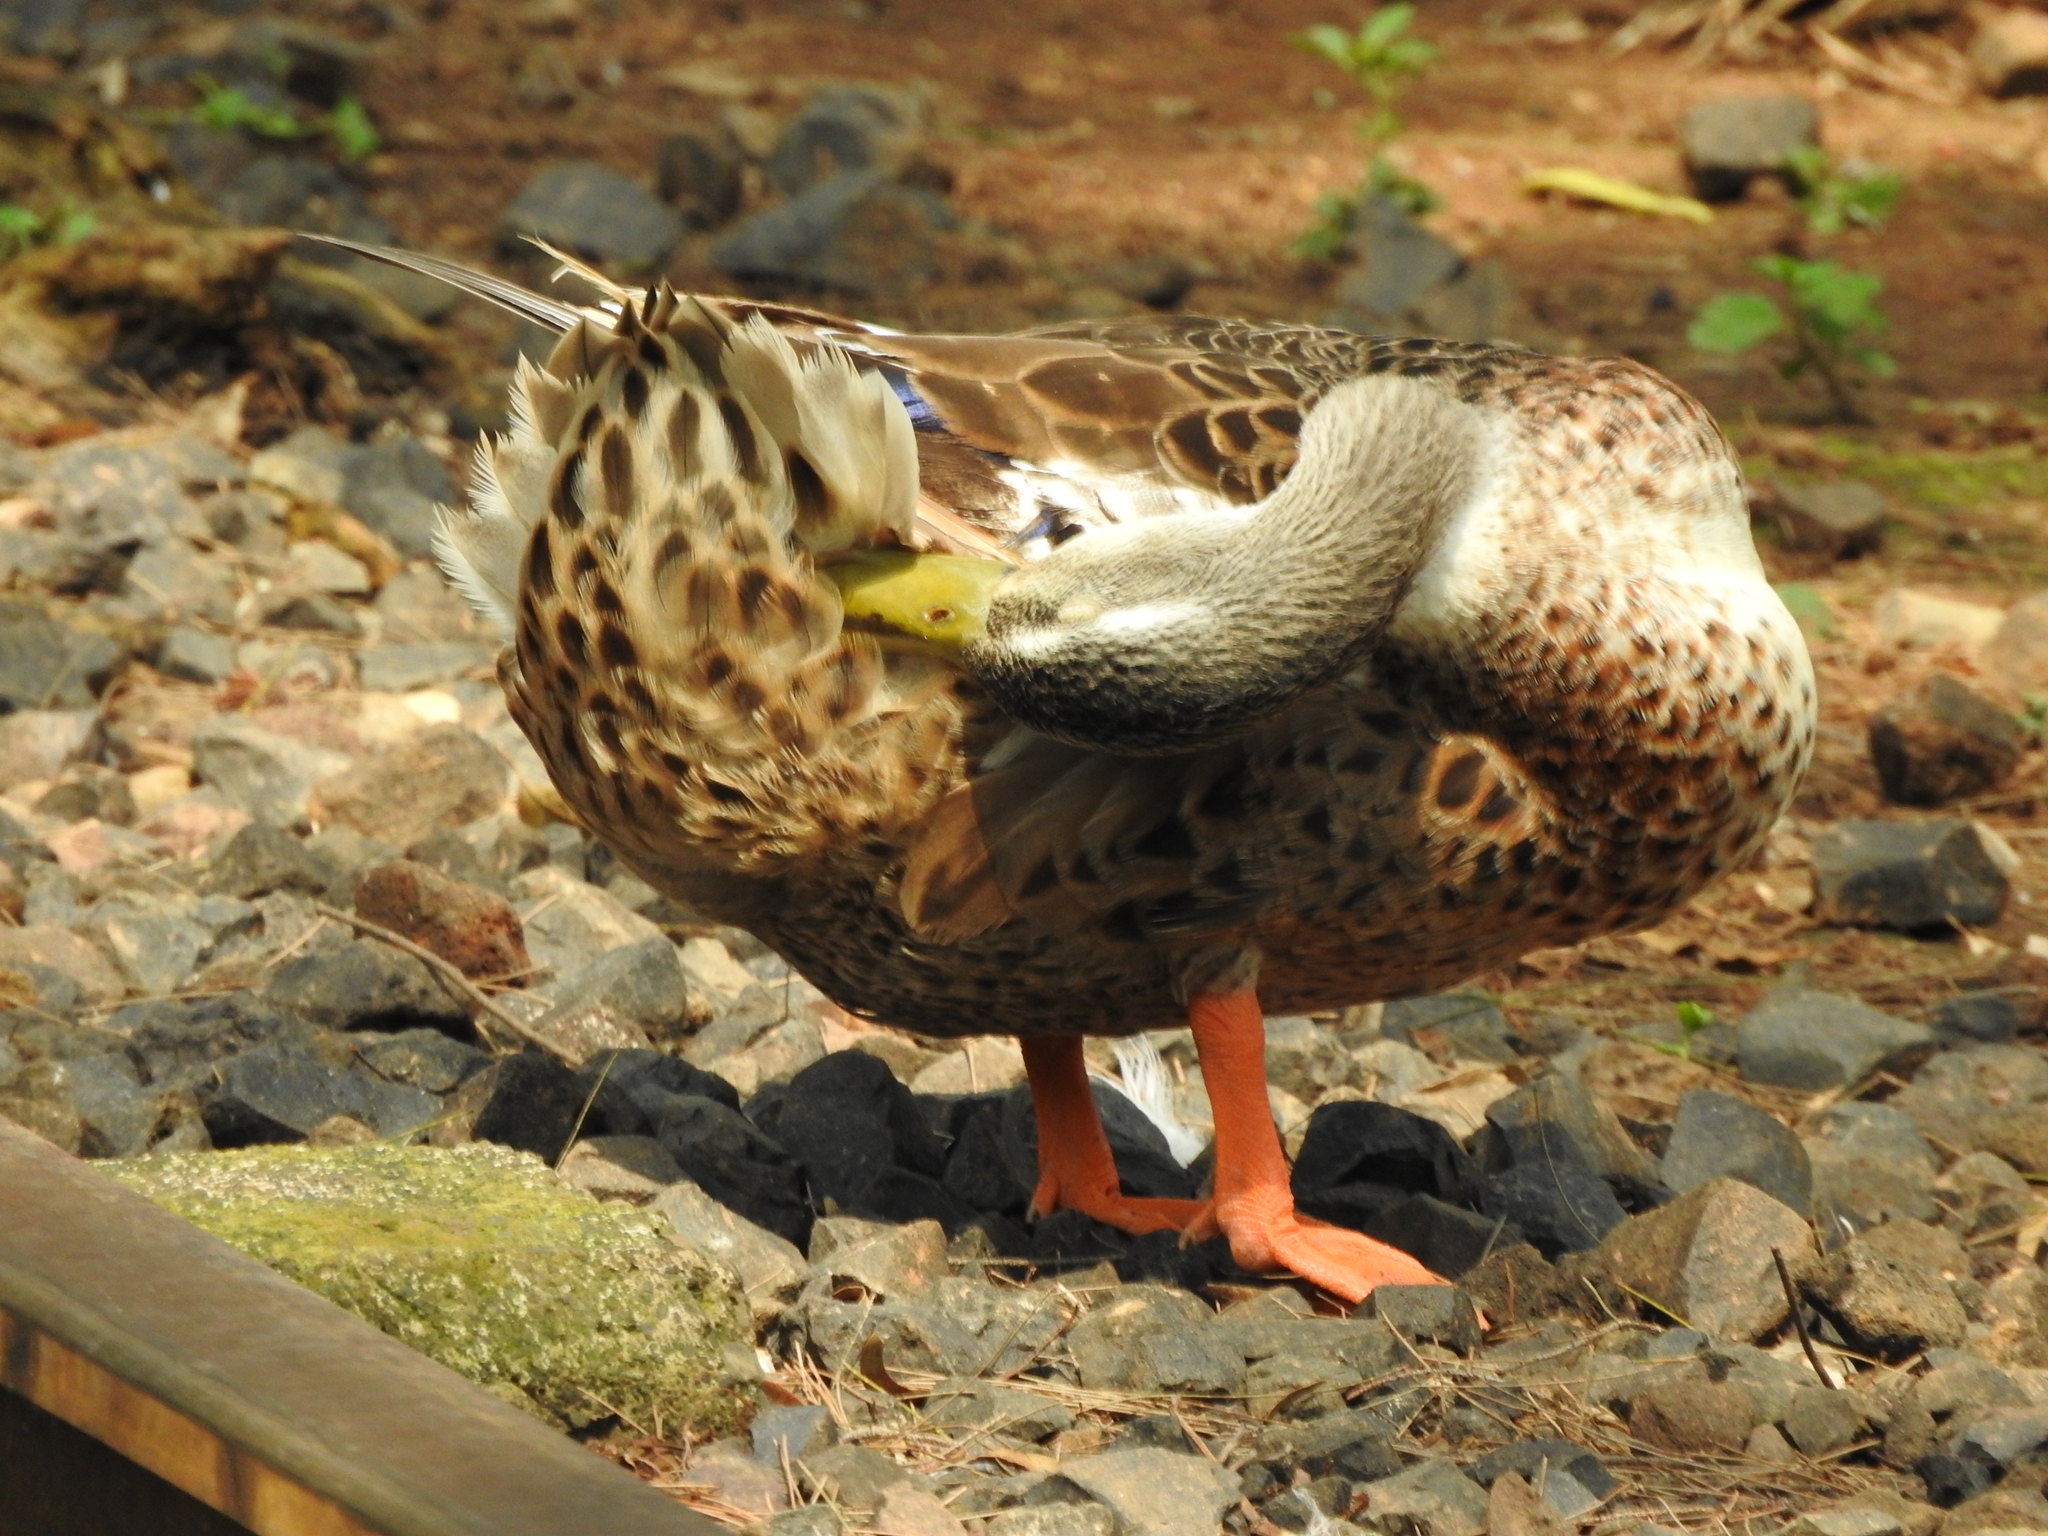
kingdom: Animalia
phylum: Chordata
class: Aves
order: Anseriformes
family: Anatidae
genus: Anas
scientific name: Anas platyrhynchos
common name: Mallard
